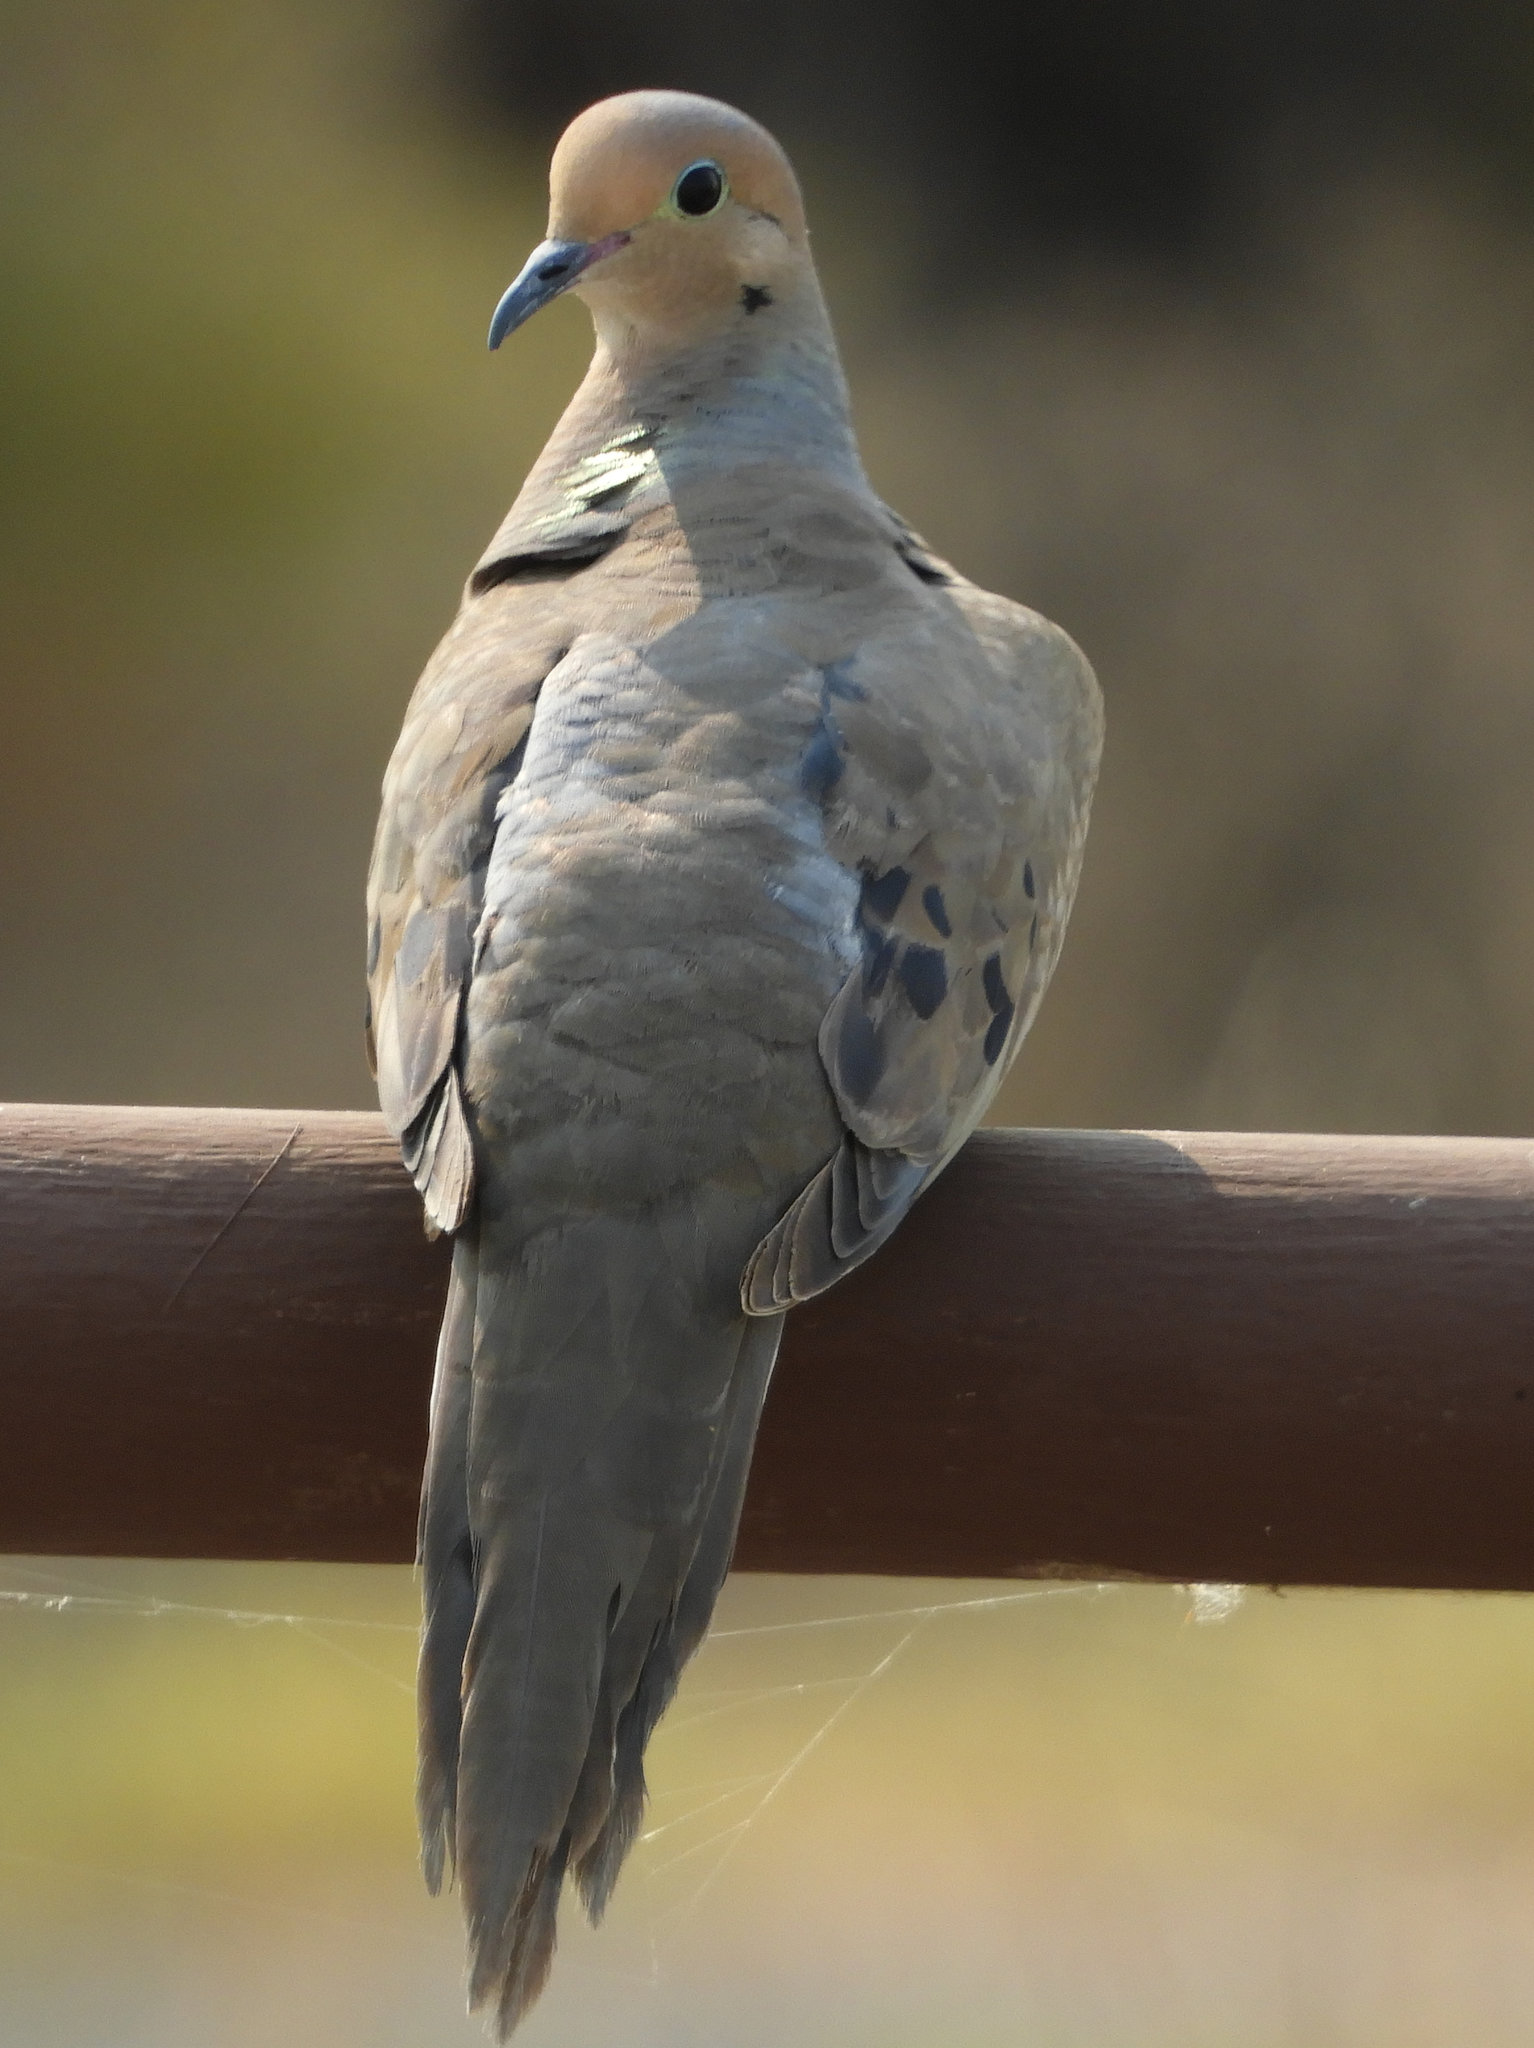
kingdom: Animalia
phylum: Chordata
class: Aves
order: Columbiformes
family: Columbidae
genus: Zenaida
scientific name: Zenaida macroura
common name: Mourning dove
